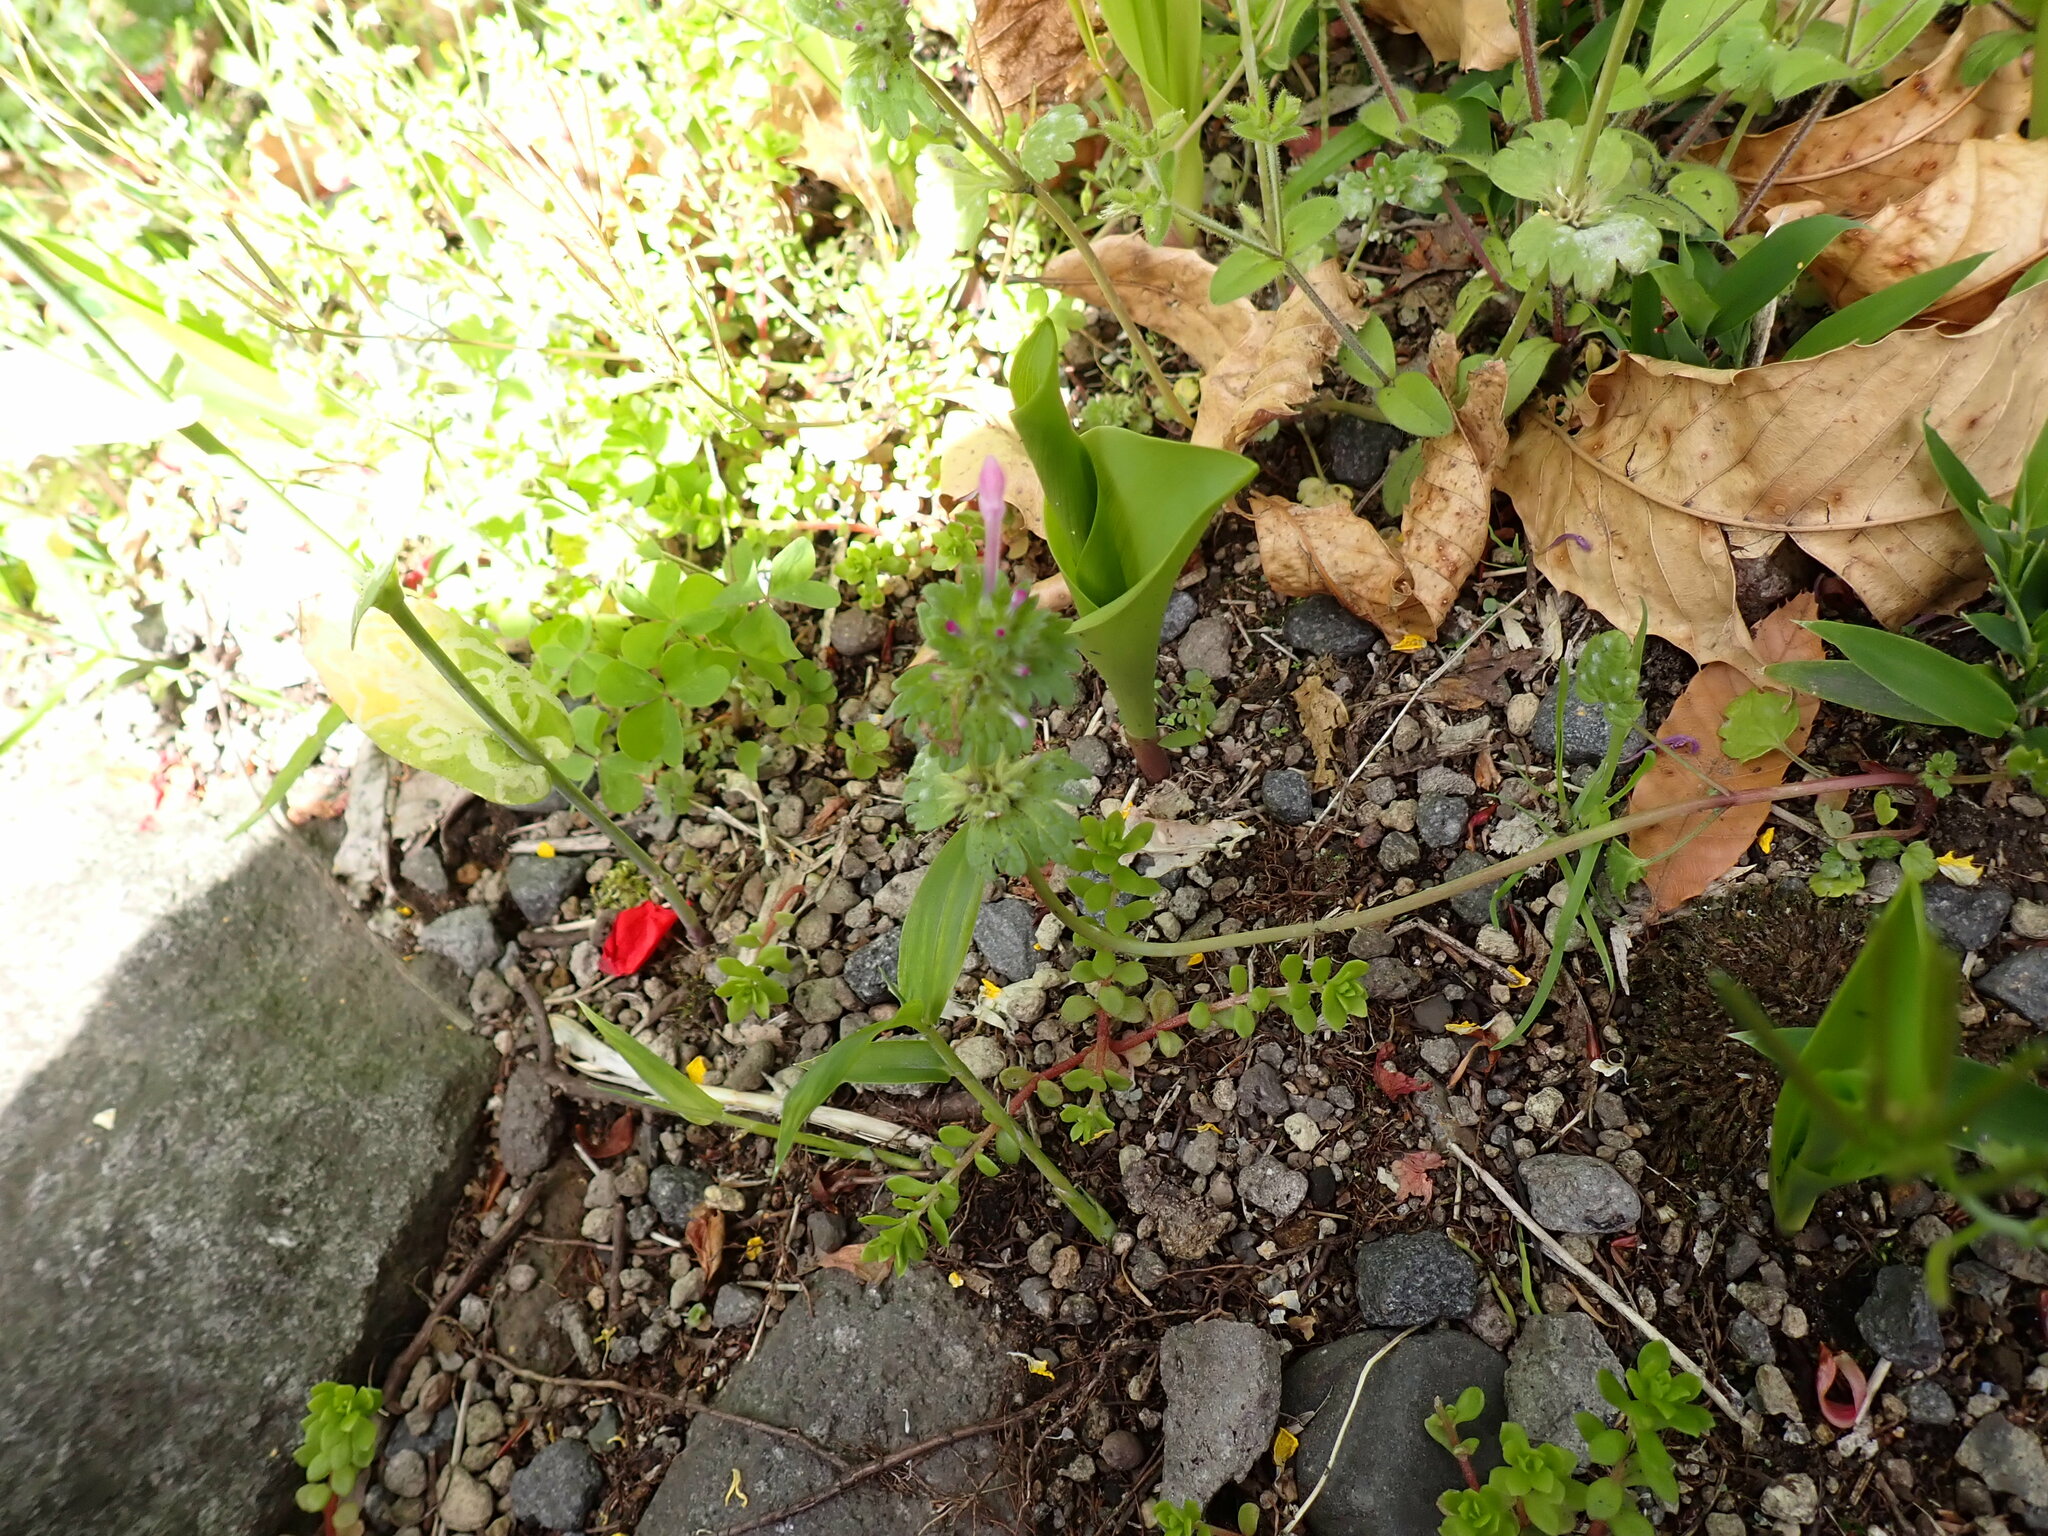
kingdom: Plantae
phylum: Tracheophyta
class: Magnoliopsida
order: Lamiales
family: Lamiaceae
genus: Lamium
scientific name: Lamium amplexicaule
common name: Henbit dead-nettle
